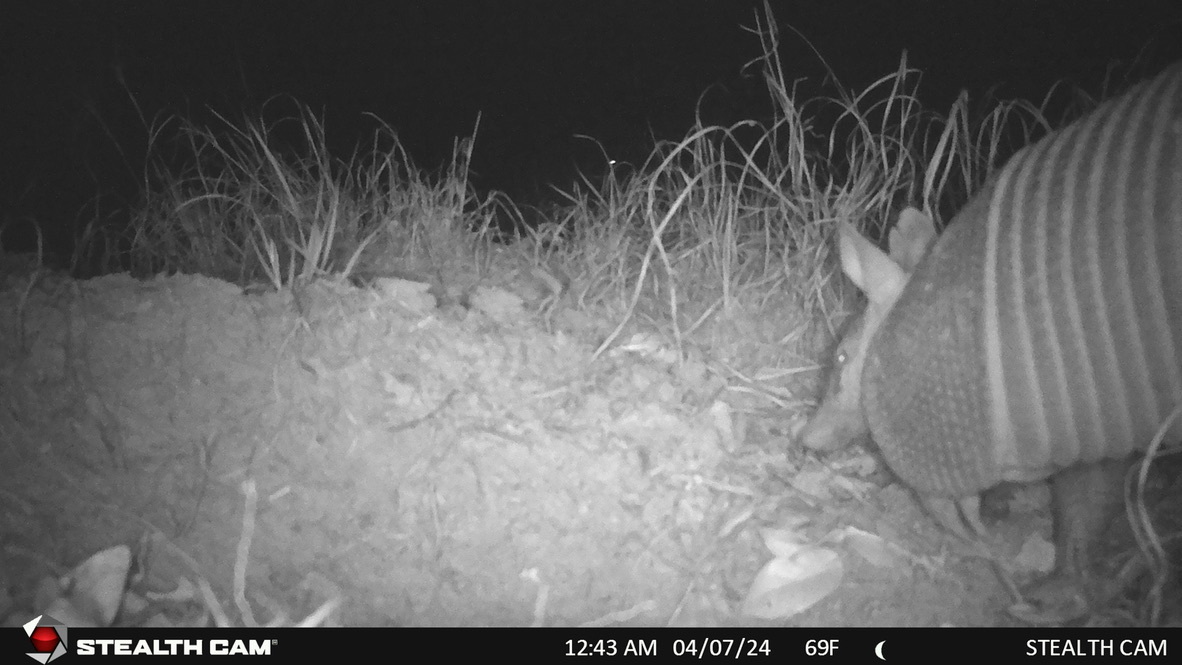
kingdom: Animalia
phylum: Chordata
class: Mammalia
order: Cingulata
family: Dasypodidae
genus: Dasypus
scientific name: Dasypus novemcinctus
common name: Nine-banded armadillo
